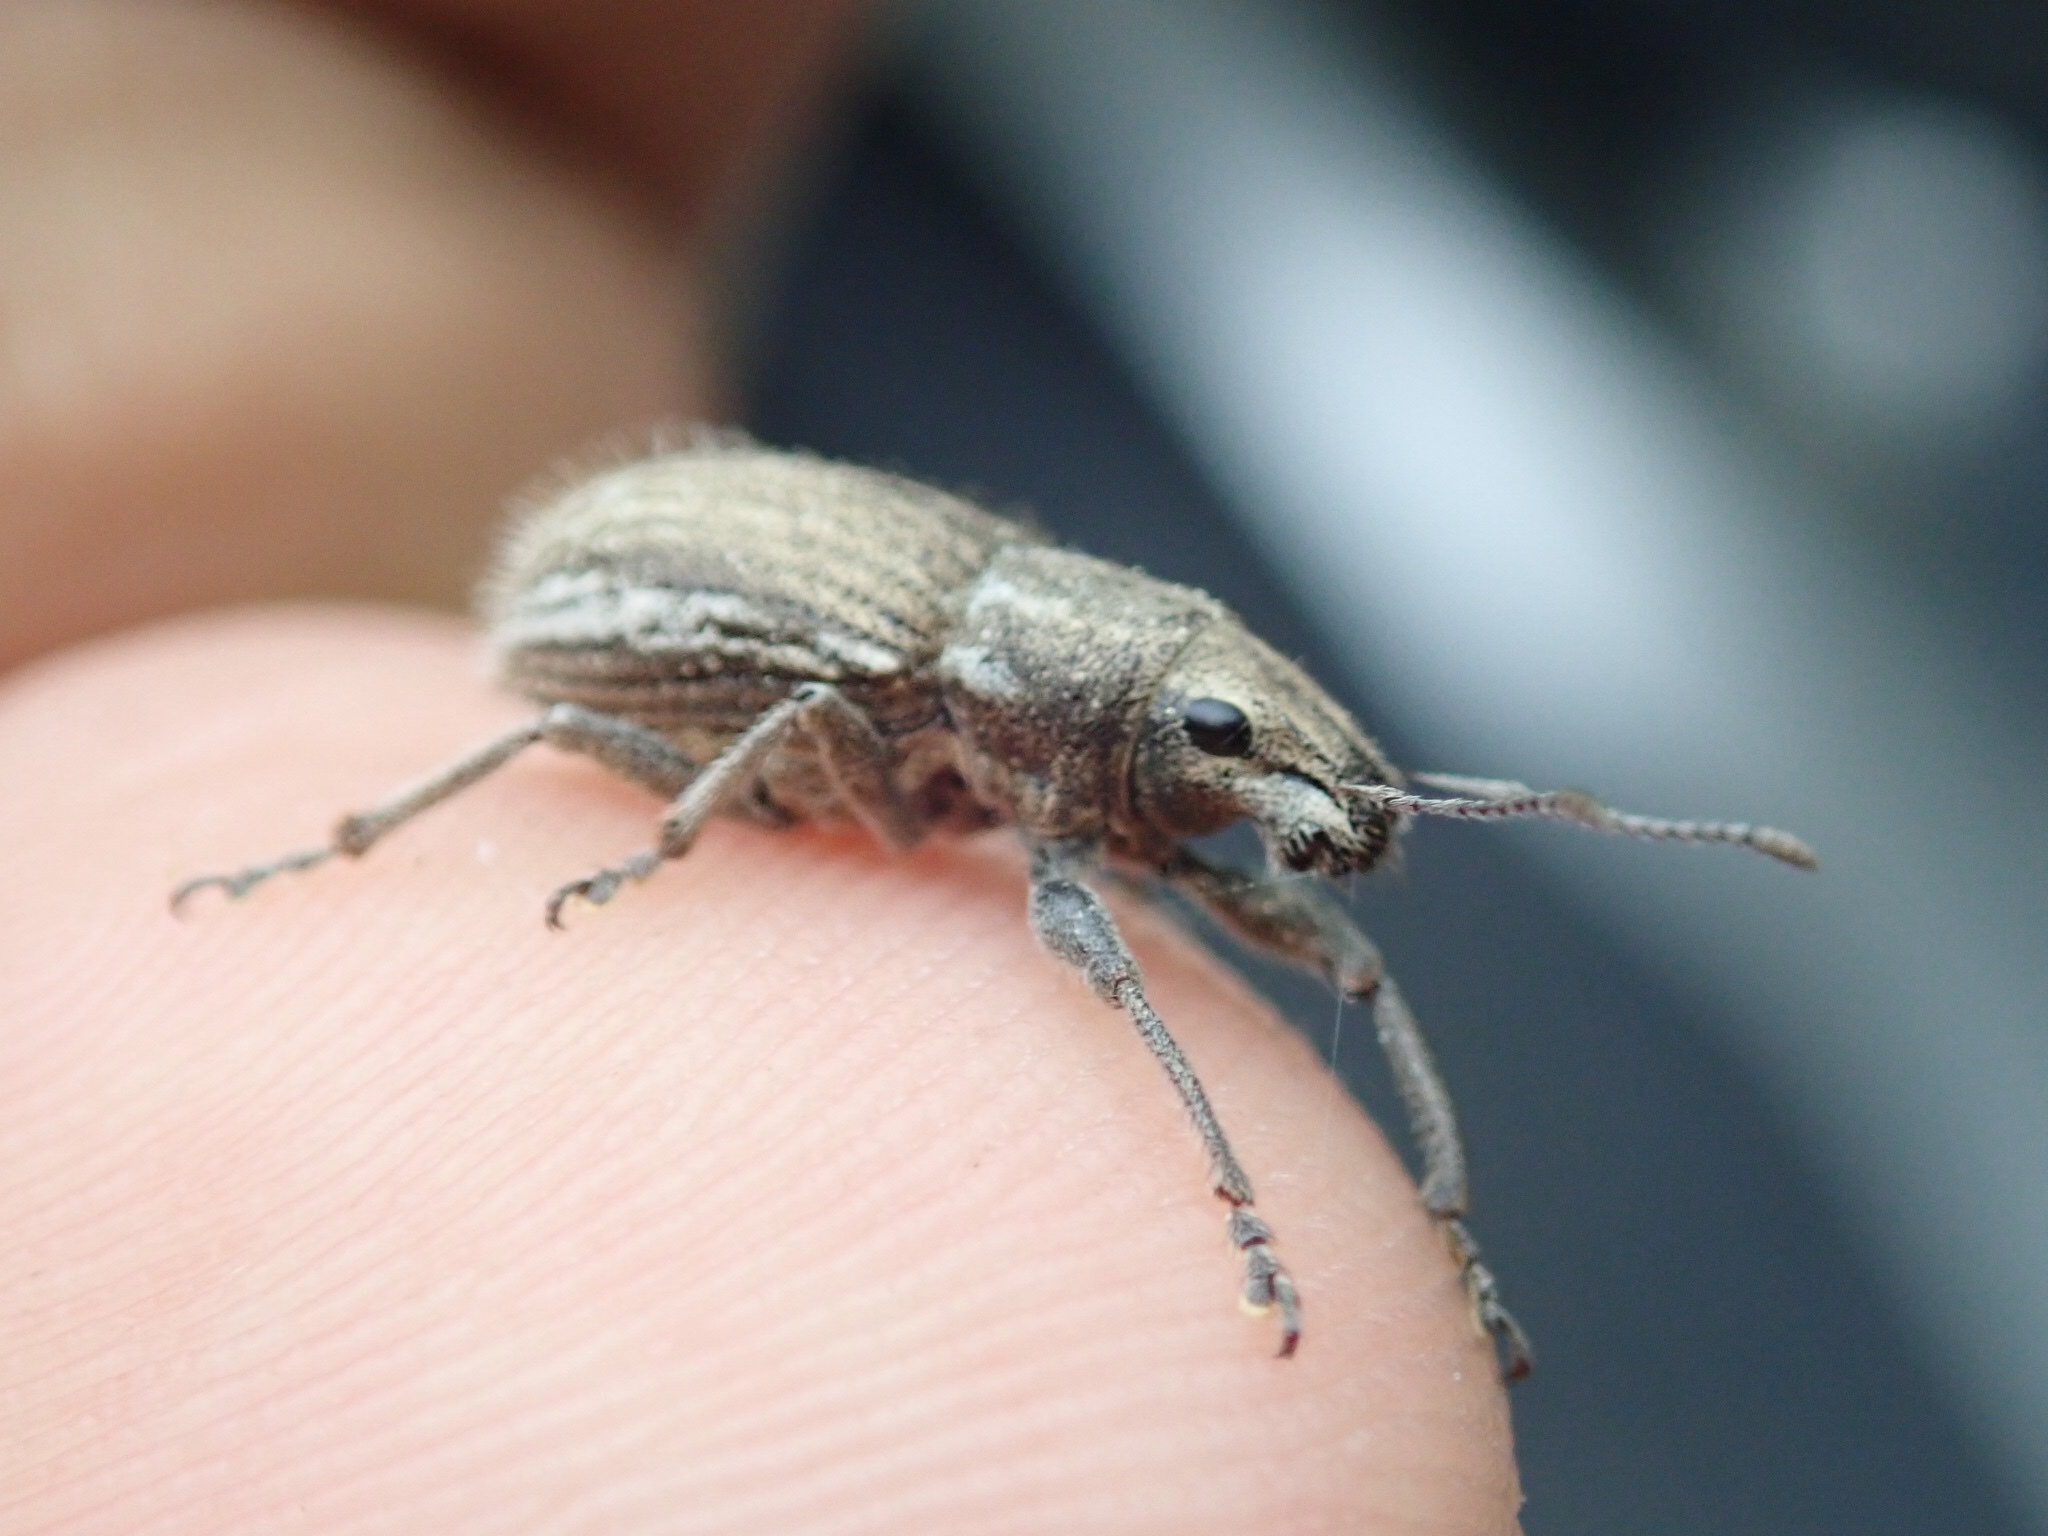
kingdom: Animalia
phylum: Arthropoda
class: Insecta
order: Coleoptera
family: Curculionidae
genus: Naupactus
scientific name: Naupactus leucoloma
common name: Whitefringed beetle
